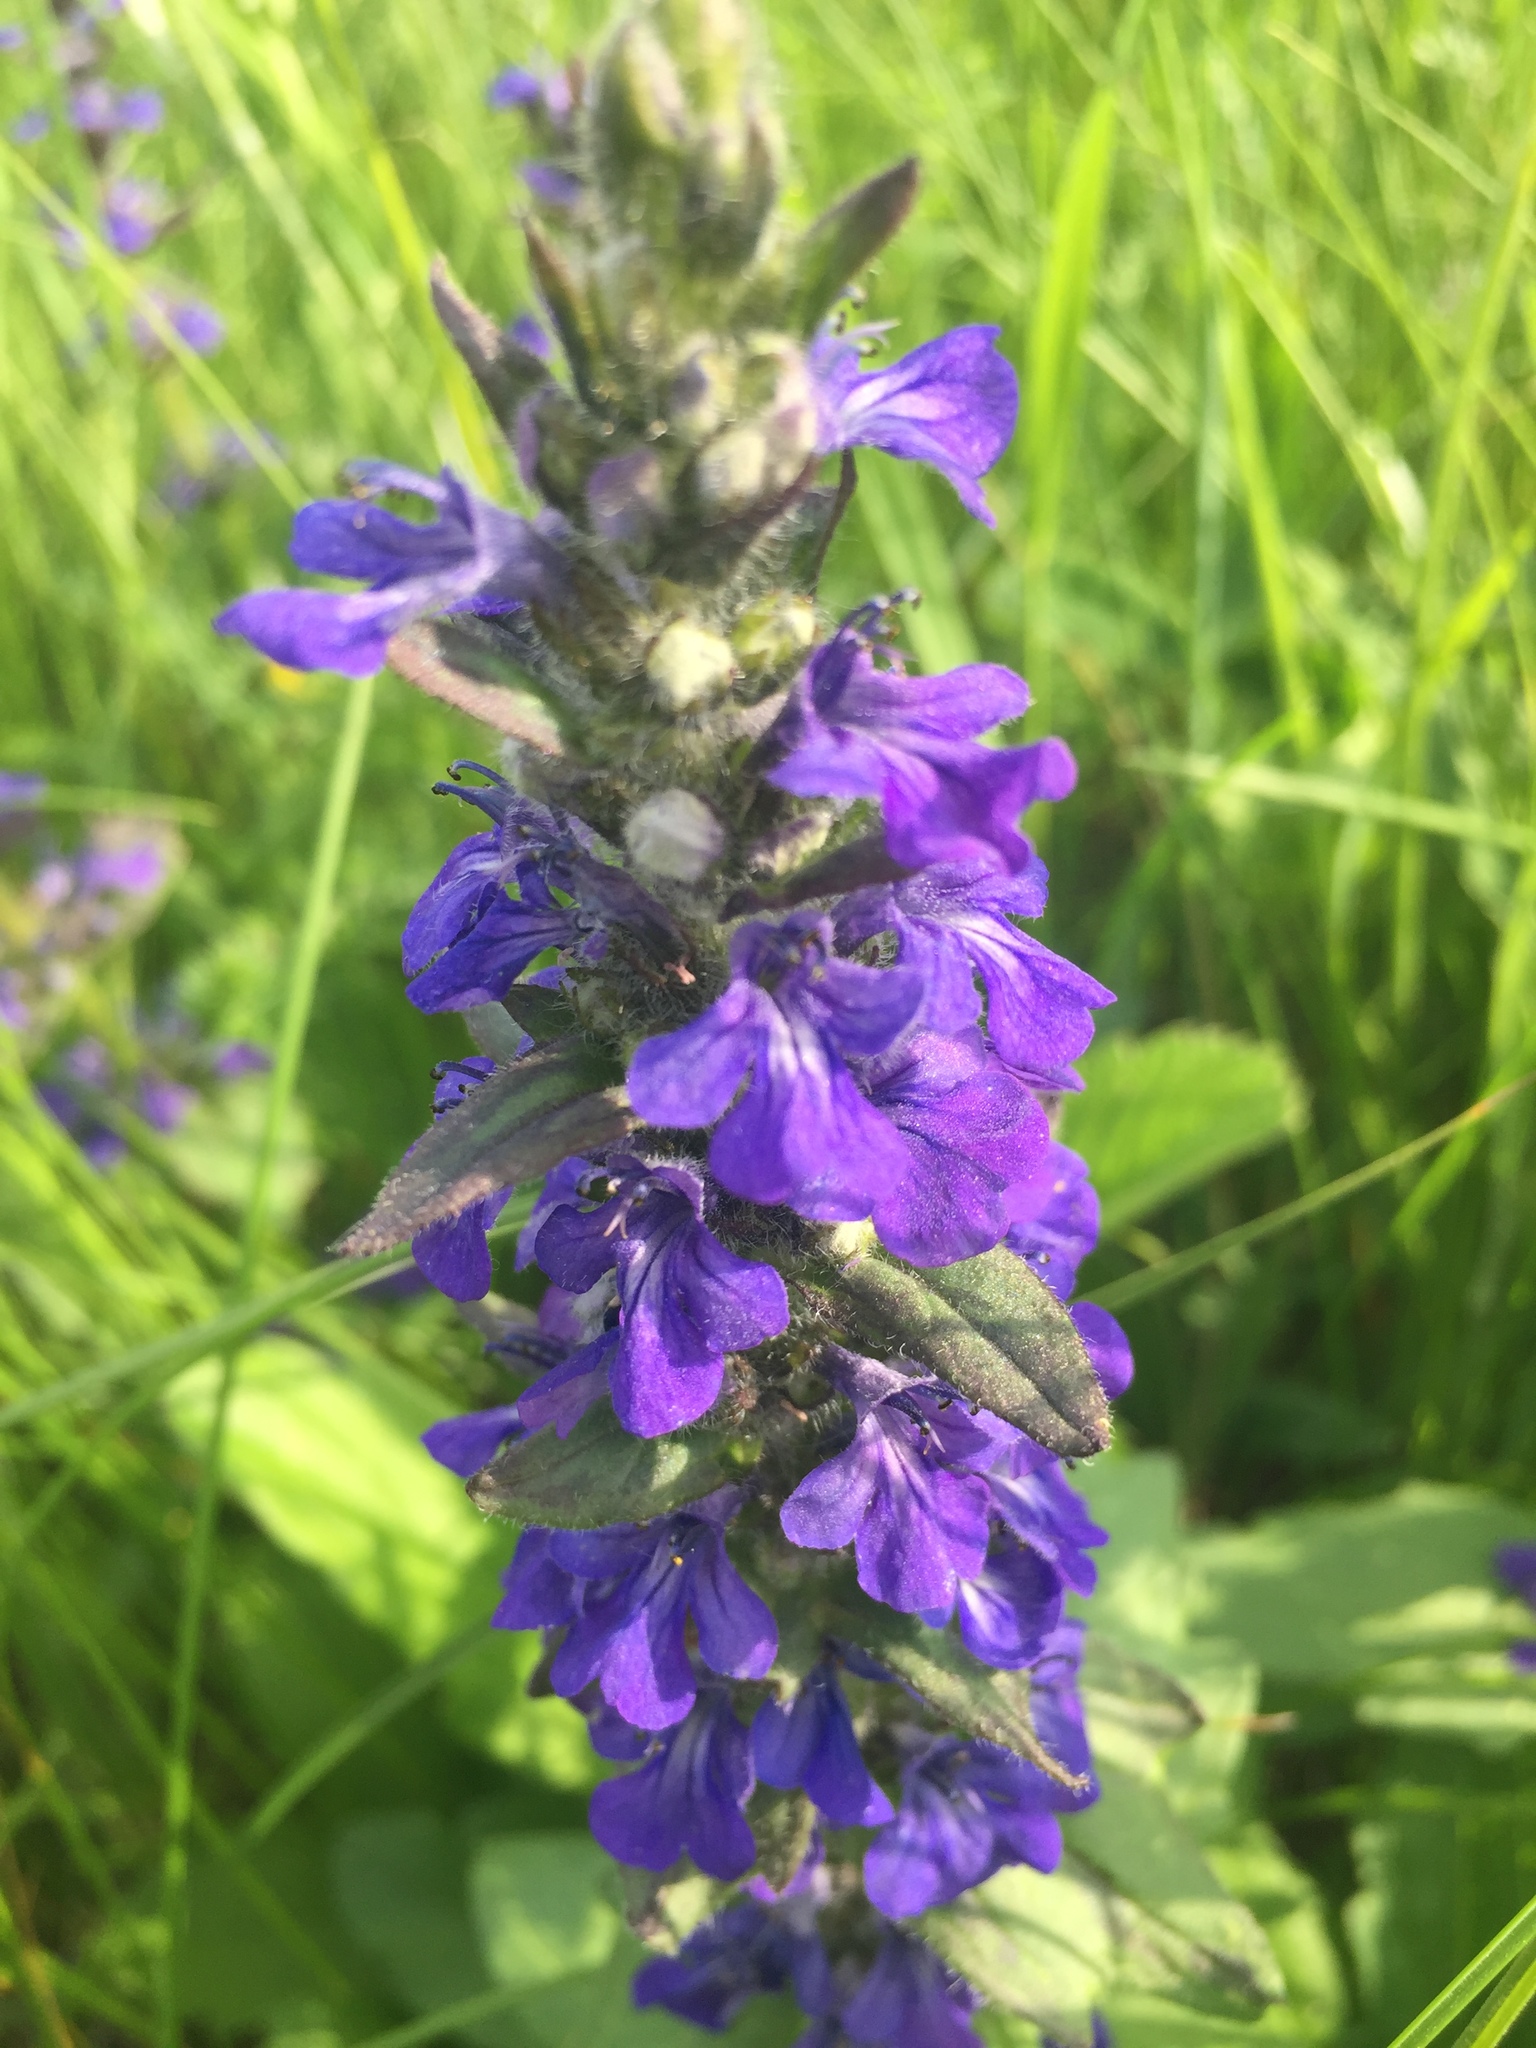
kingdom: Plantae
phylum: Tracheophyta
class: Magnoliopsida
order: Lamiales
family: Lamiaceae
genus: Ajuga
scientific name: Ajuga genevensis
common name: Blue bugle
